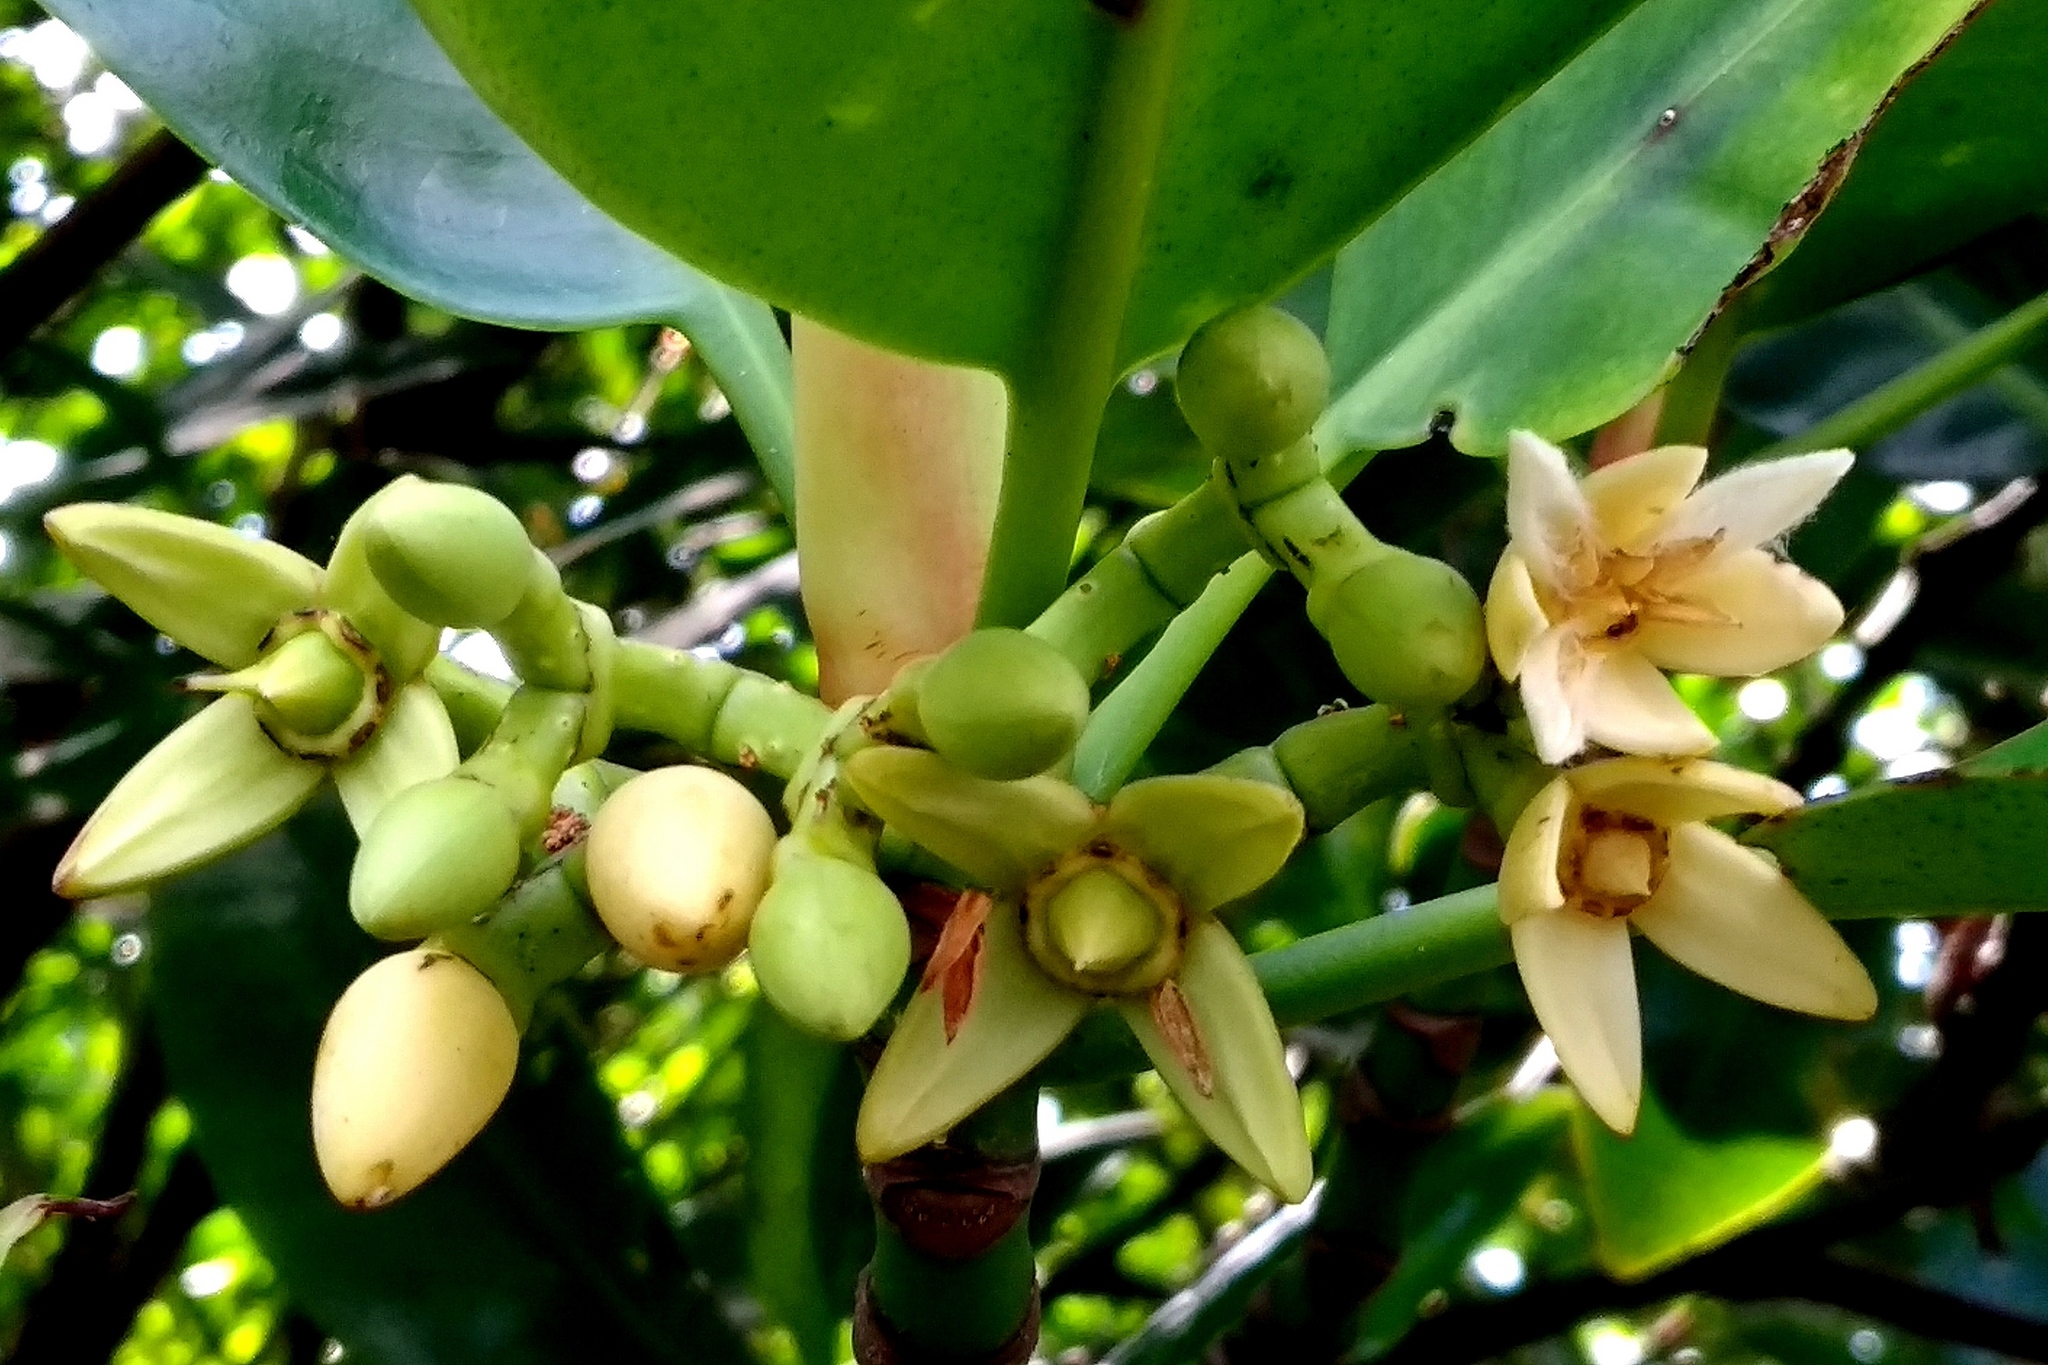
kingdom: Plantae
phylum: Tracheophyta
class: Magnoliopsida
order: Malpighiales
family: Rhizophoraceae
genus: Rhizophora
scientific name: Rhizophora stylosa
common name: Red mangrove
